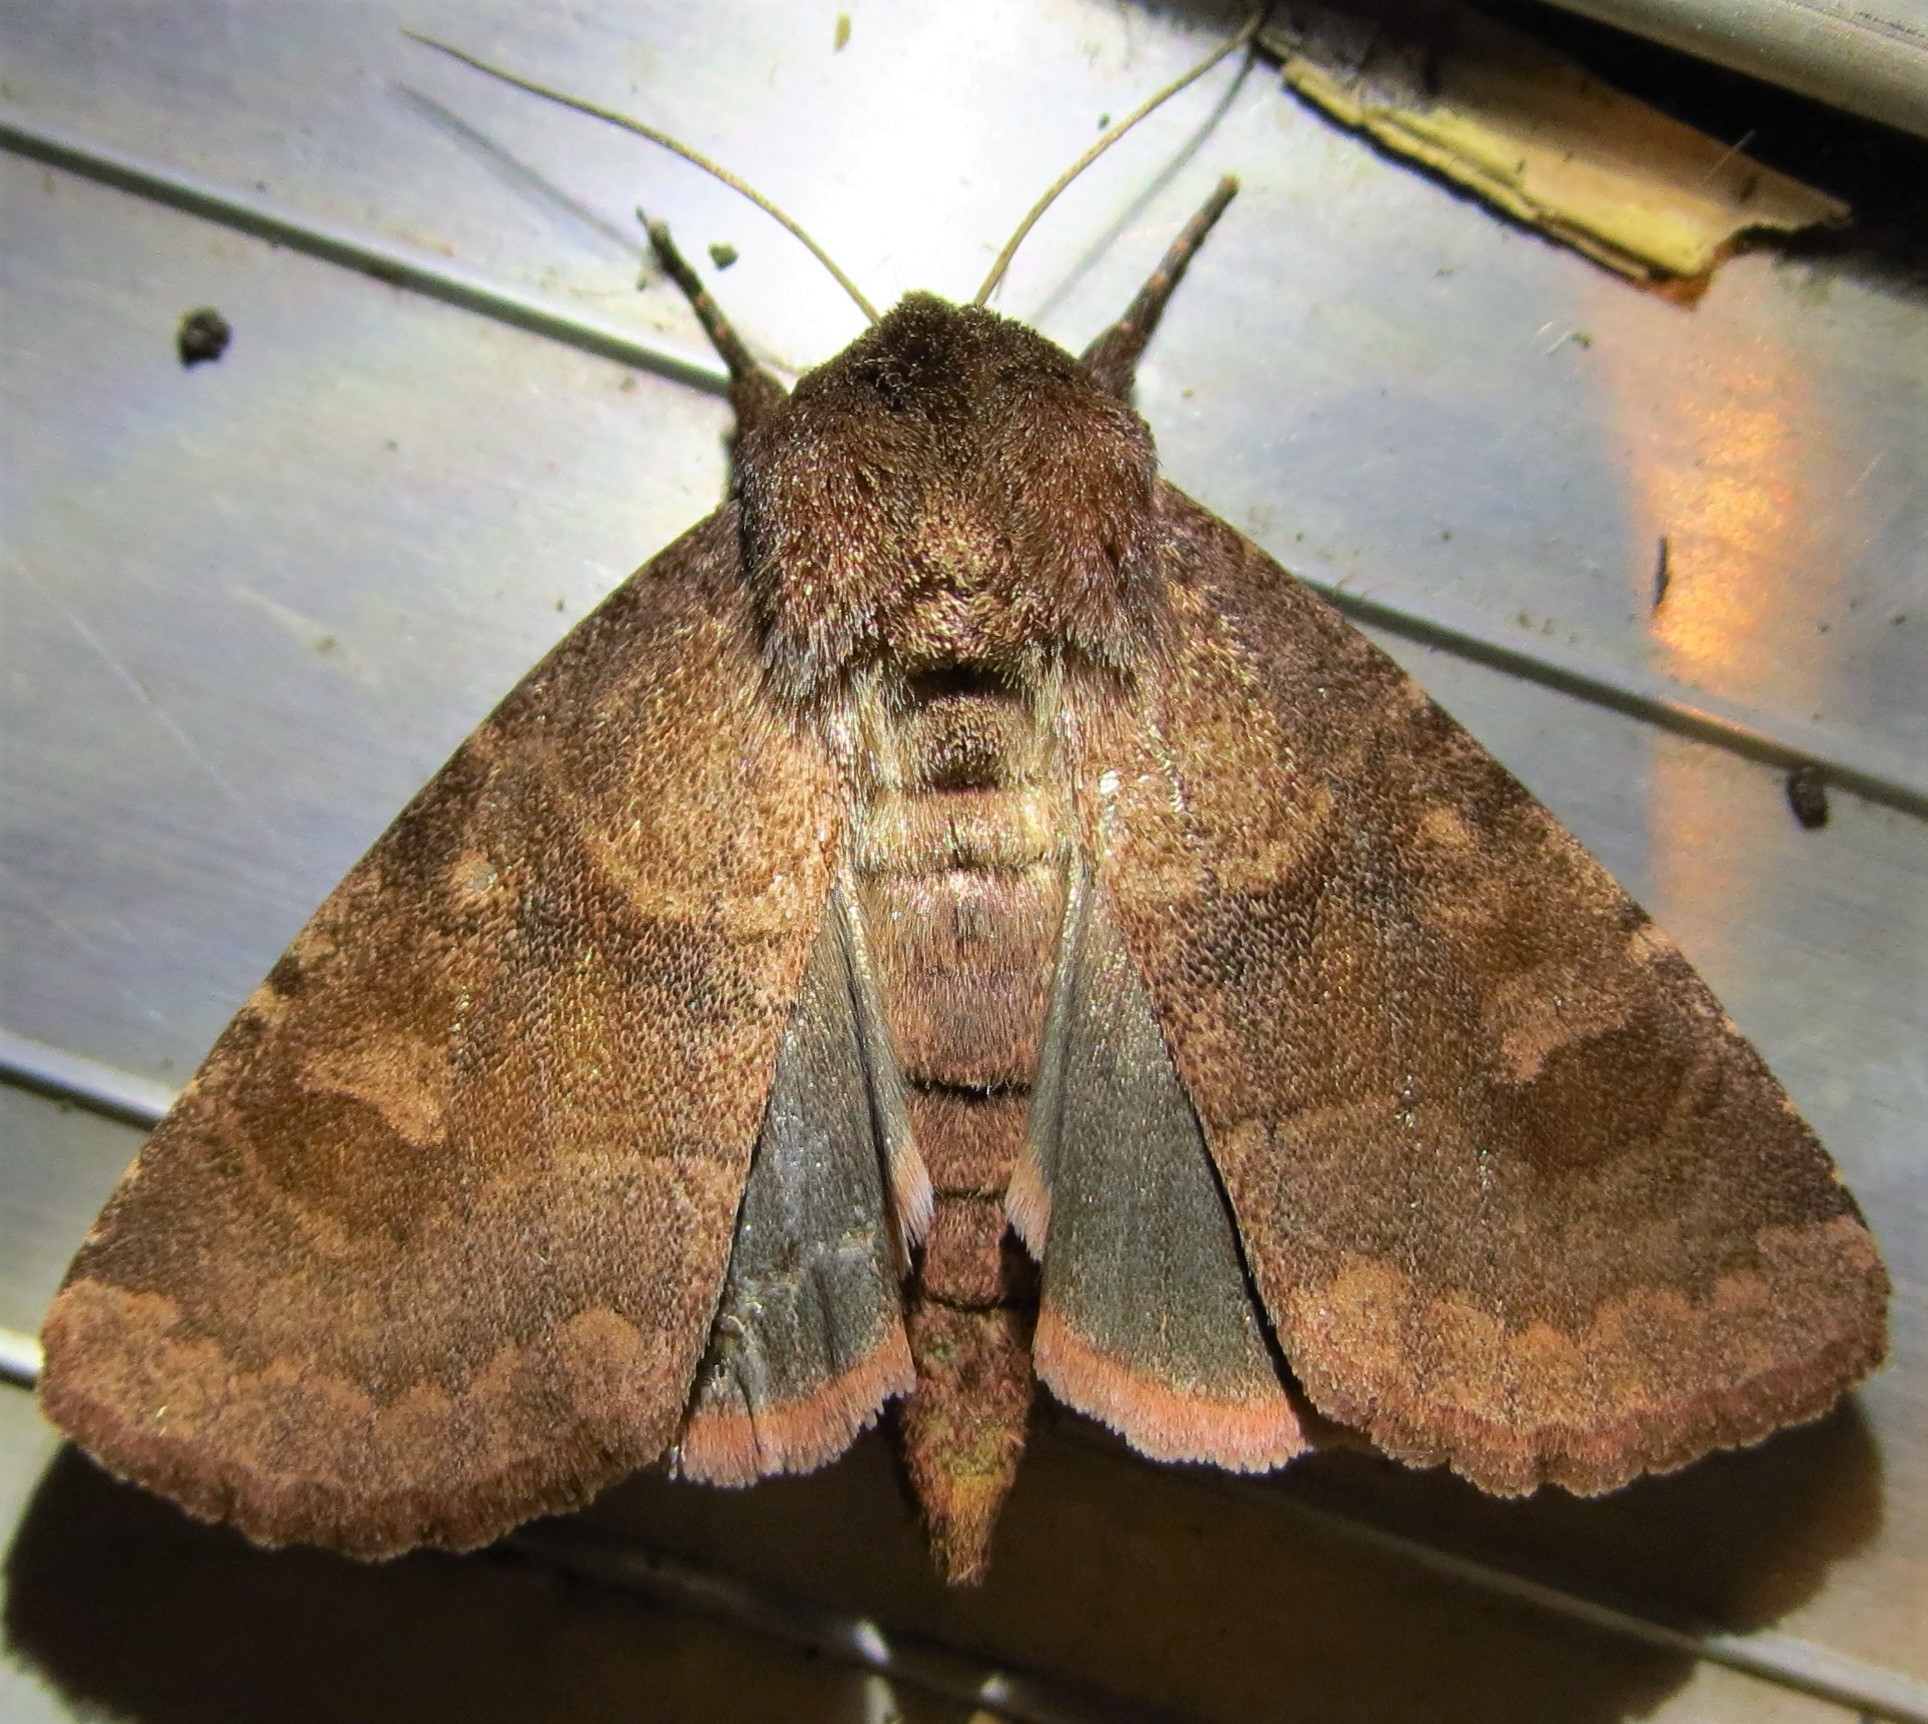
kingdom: Animalia
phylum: Arthropoda
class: Insecta
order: Lepidoptera
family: Noctuidae
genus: Nephelodes
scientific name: Nephelodes minians
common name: Bronzed cutworm
